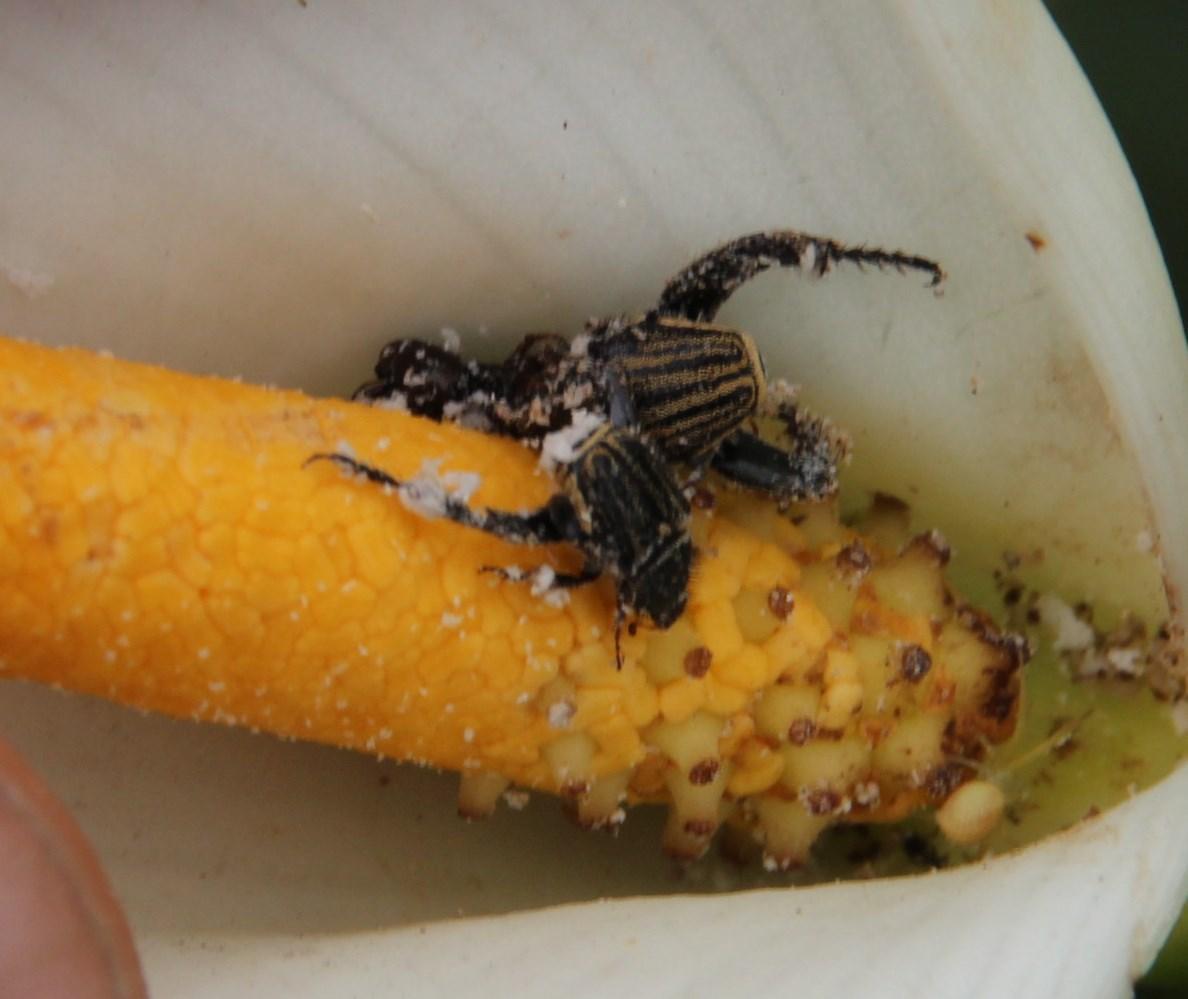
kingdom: Plantae
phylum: Tracheophyta
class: Liliopsida
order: Alismatales
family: Araceae
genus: Zantedeschia
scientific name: Zantedeschia aethiopica
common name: Altar-lily
